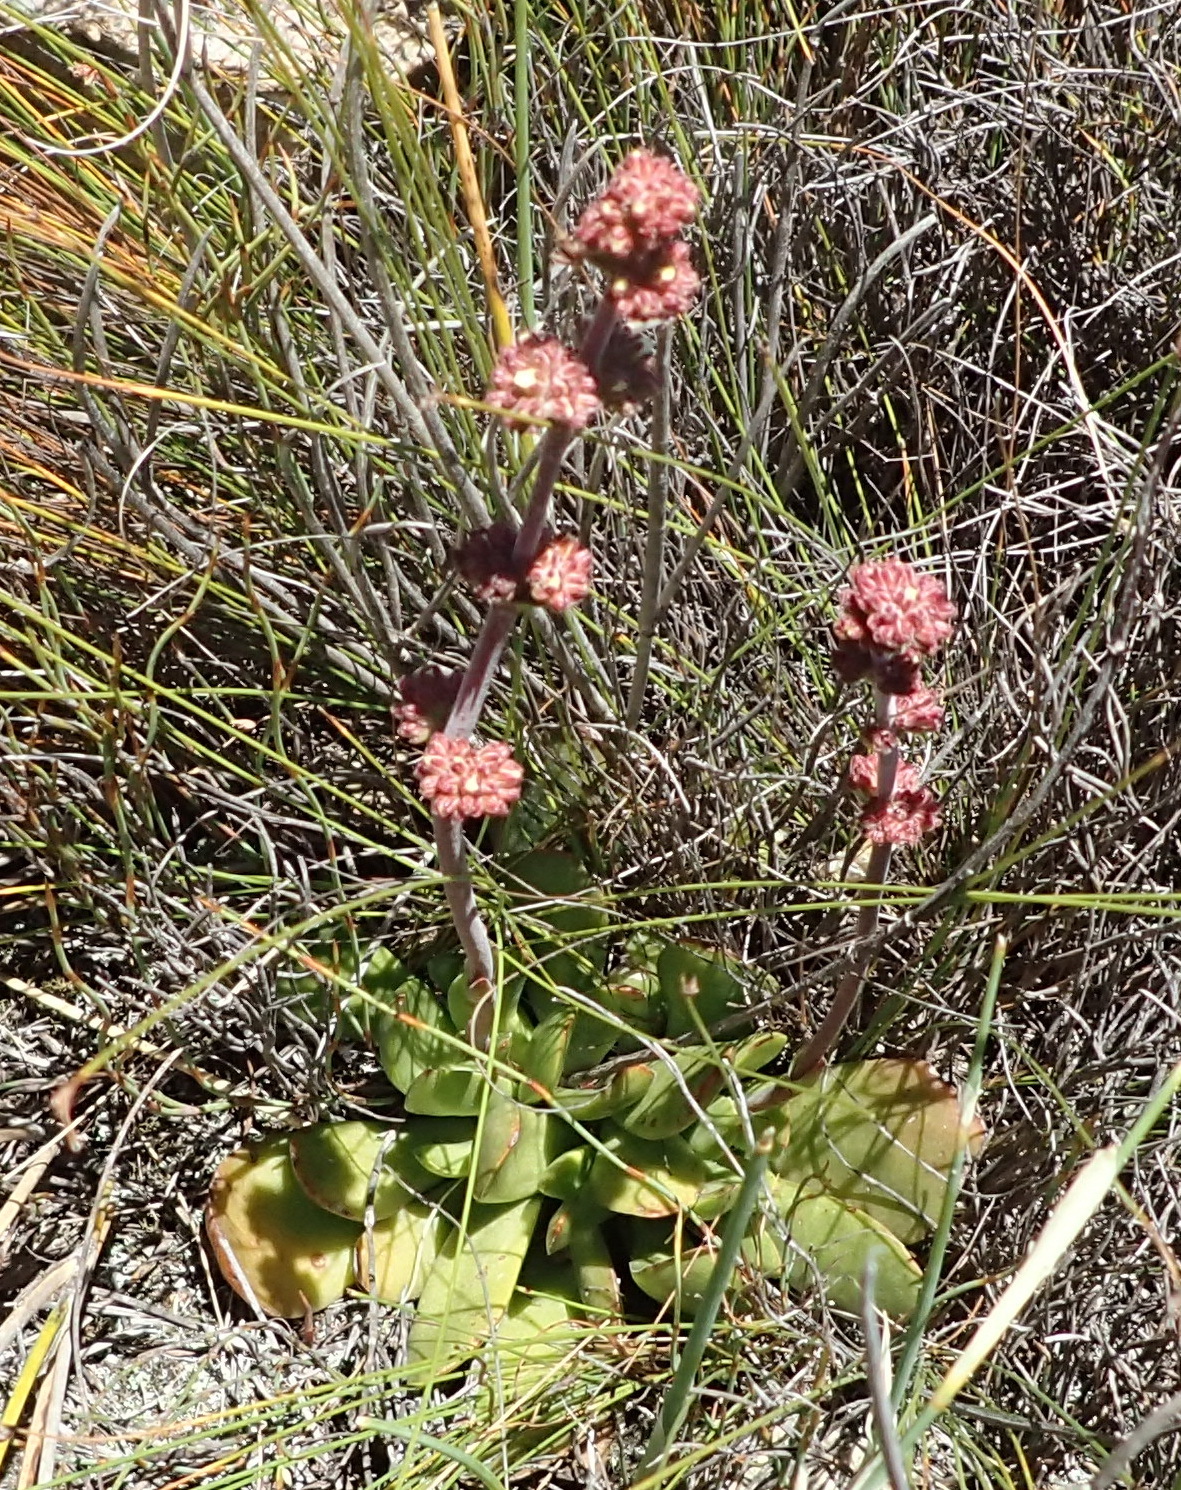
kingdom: Plantae
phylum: Tracheophyta
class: Magnoliopsida
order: Saxifragales
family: Crassulaceae
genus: Crassula
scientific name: Crassula nudicaulis
